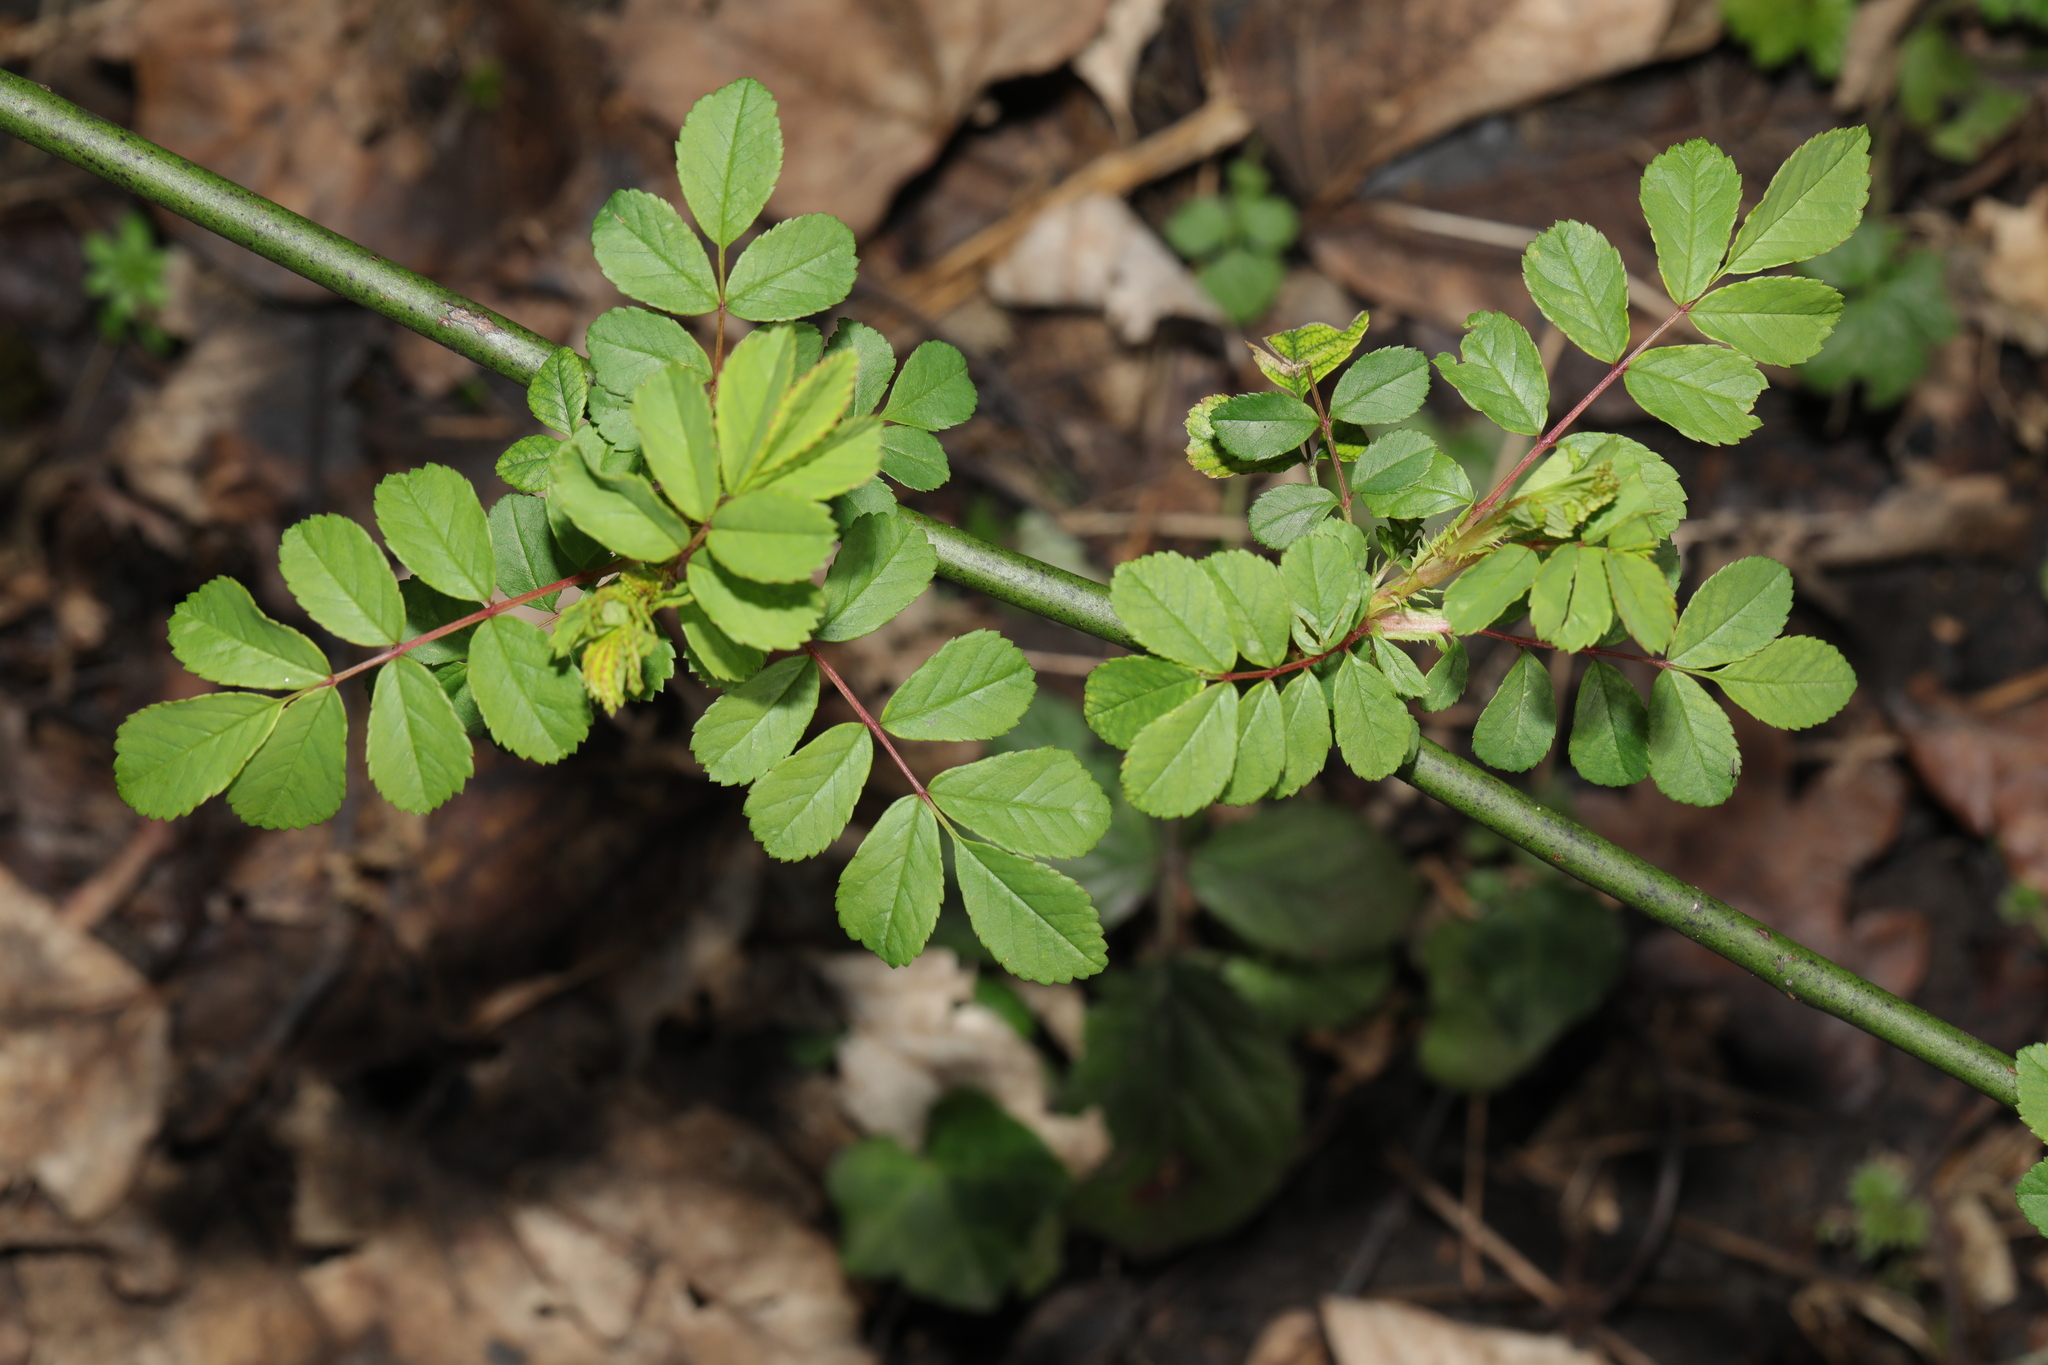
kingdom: Plantae
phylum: Tracheophyta
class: Magnoliopsida
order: Rosales
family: Rosaceae
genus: Rosa
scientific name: Rosa multiflora
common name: Multiflora rose
